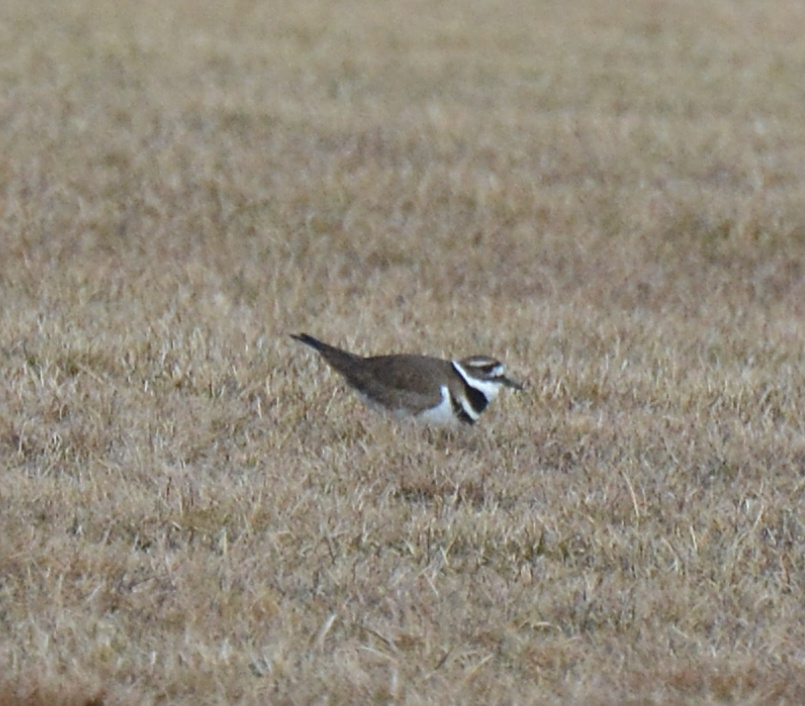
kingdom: Animalia
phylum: Chordata
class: Aves
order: Charadriiformes
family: Charadriidae
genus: Charadrius
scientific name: Charadrius vociferus
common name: Killdeer
